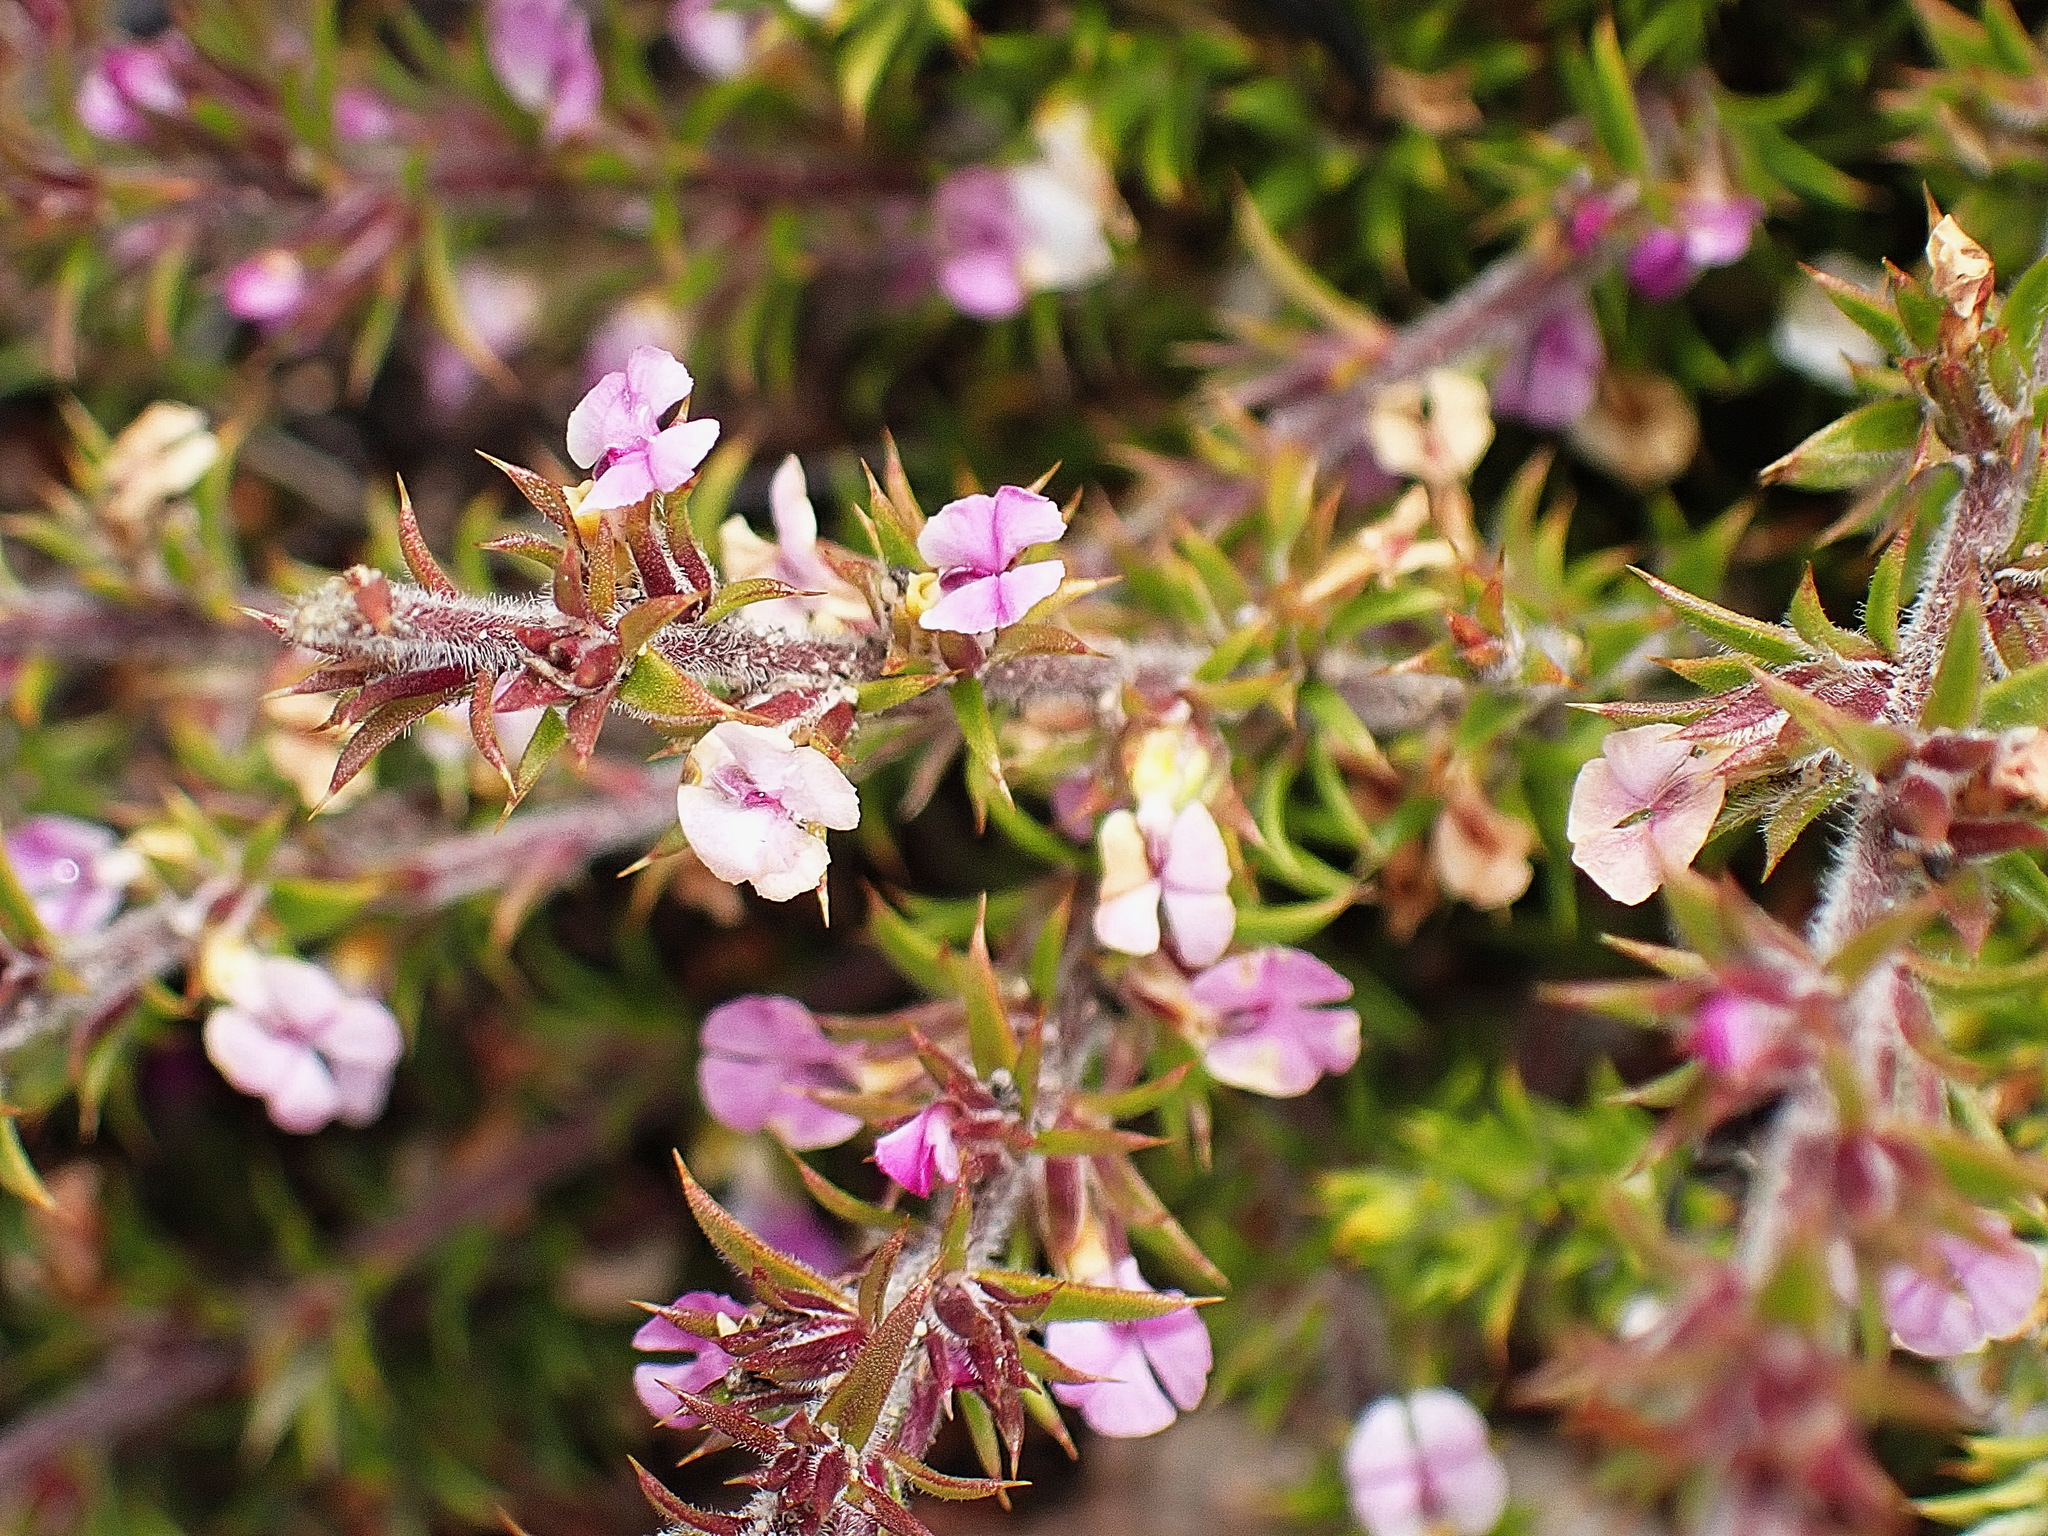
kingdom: Plantae
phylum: Tracheophyta
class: Magnoliopsida
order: Fabales
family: Polygalaceae
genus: Muraltia
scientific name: Muraltia squarrosa
